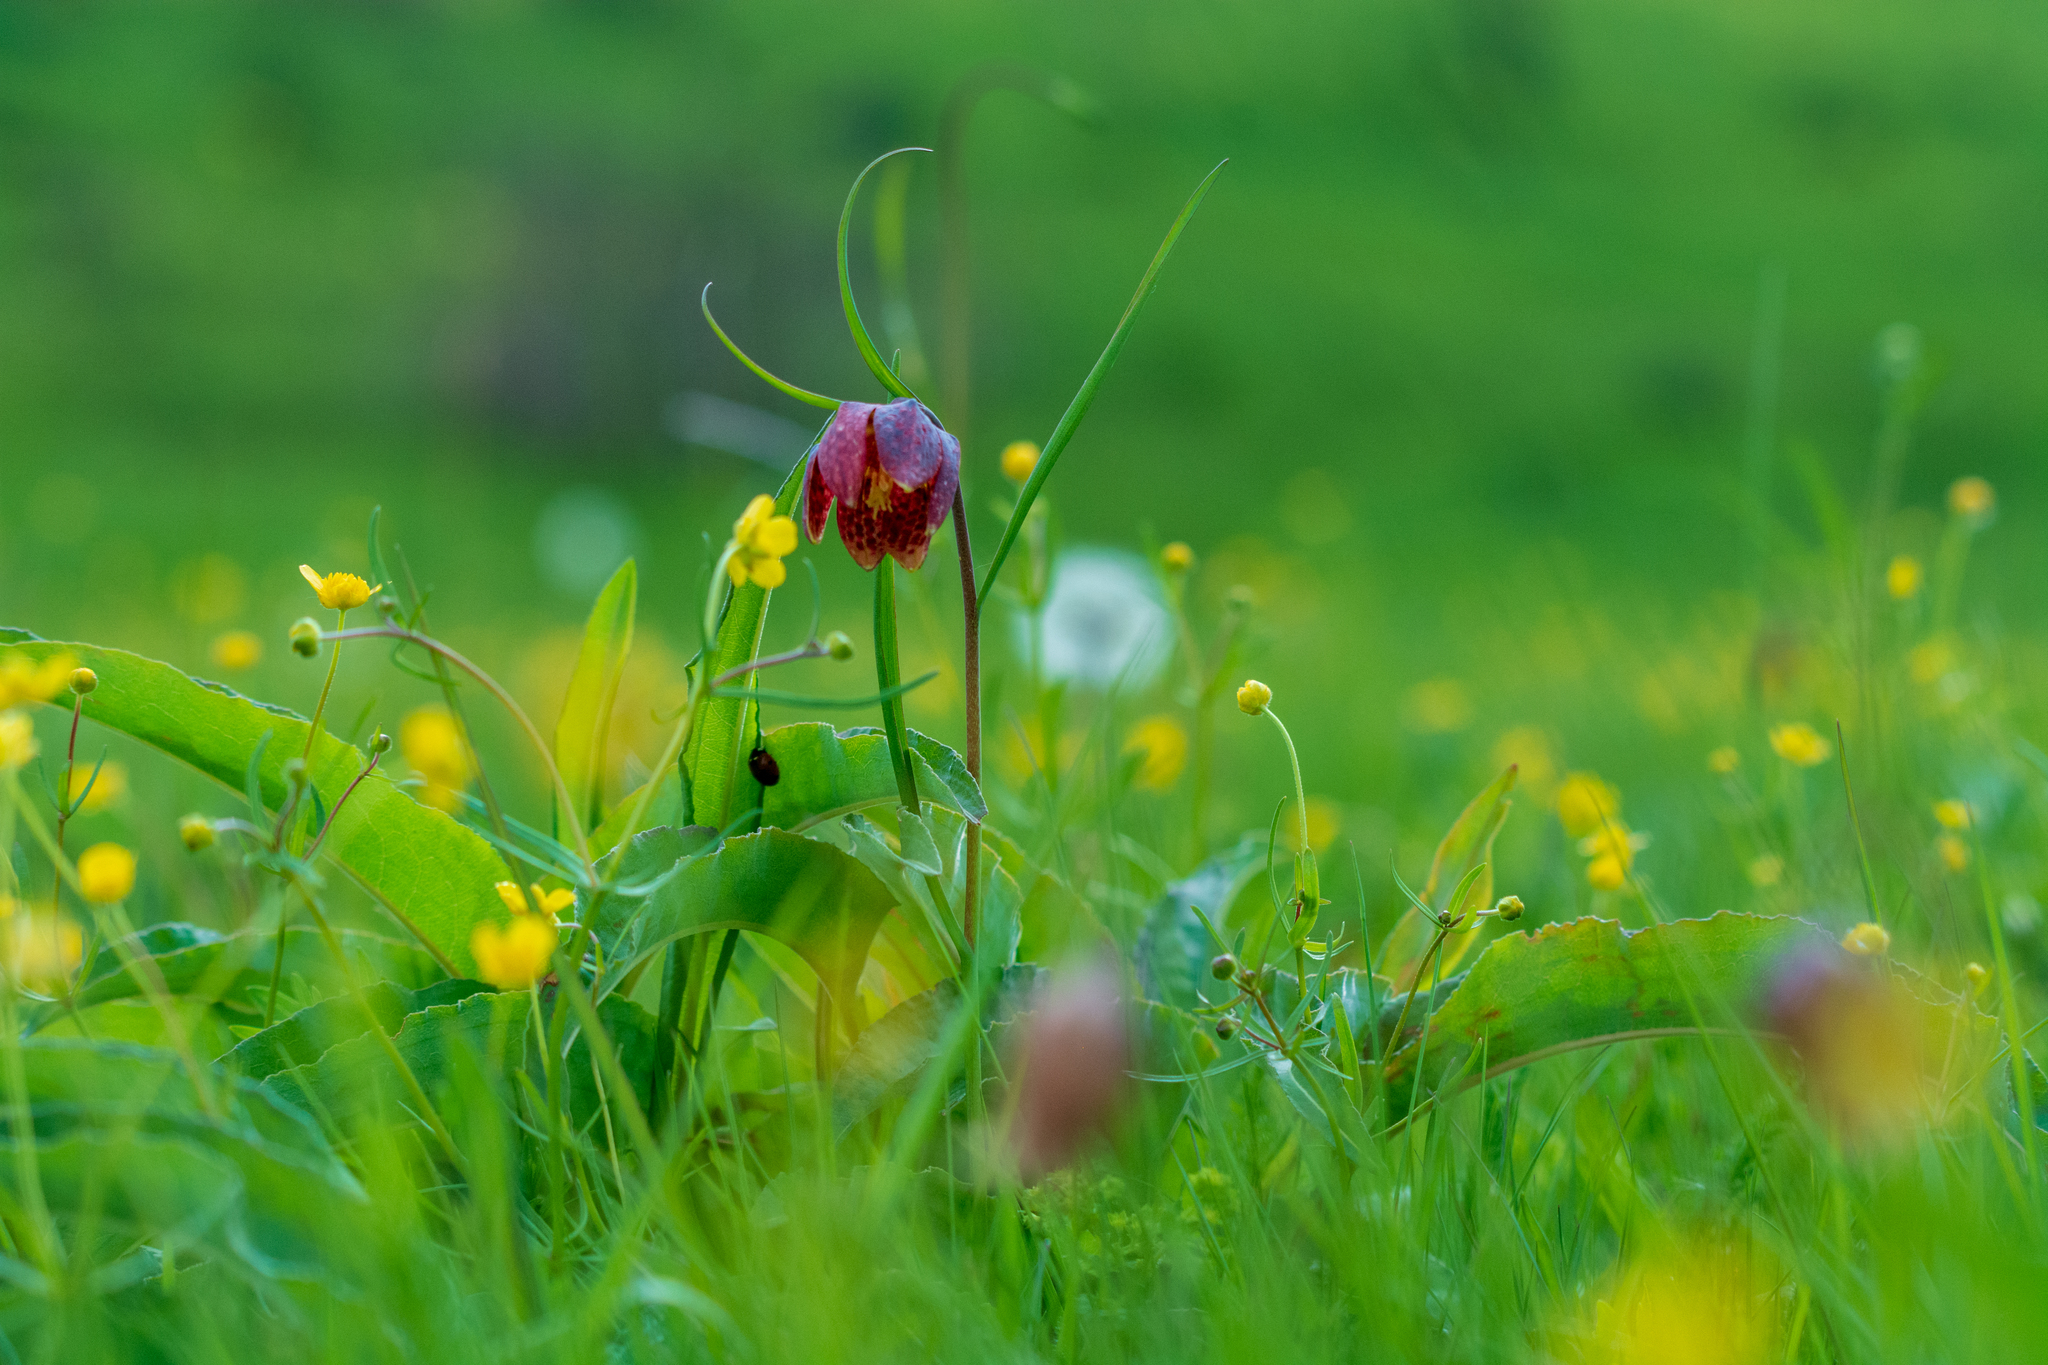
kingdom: Plantae
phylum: Tracheophyta
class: Liliopsida
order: Liliales
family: Liliaceae
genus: Fritillaria
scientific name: Fritillaria meleagris
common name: Fritillary
